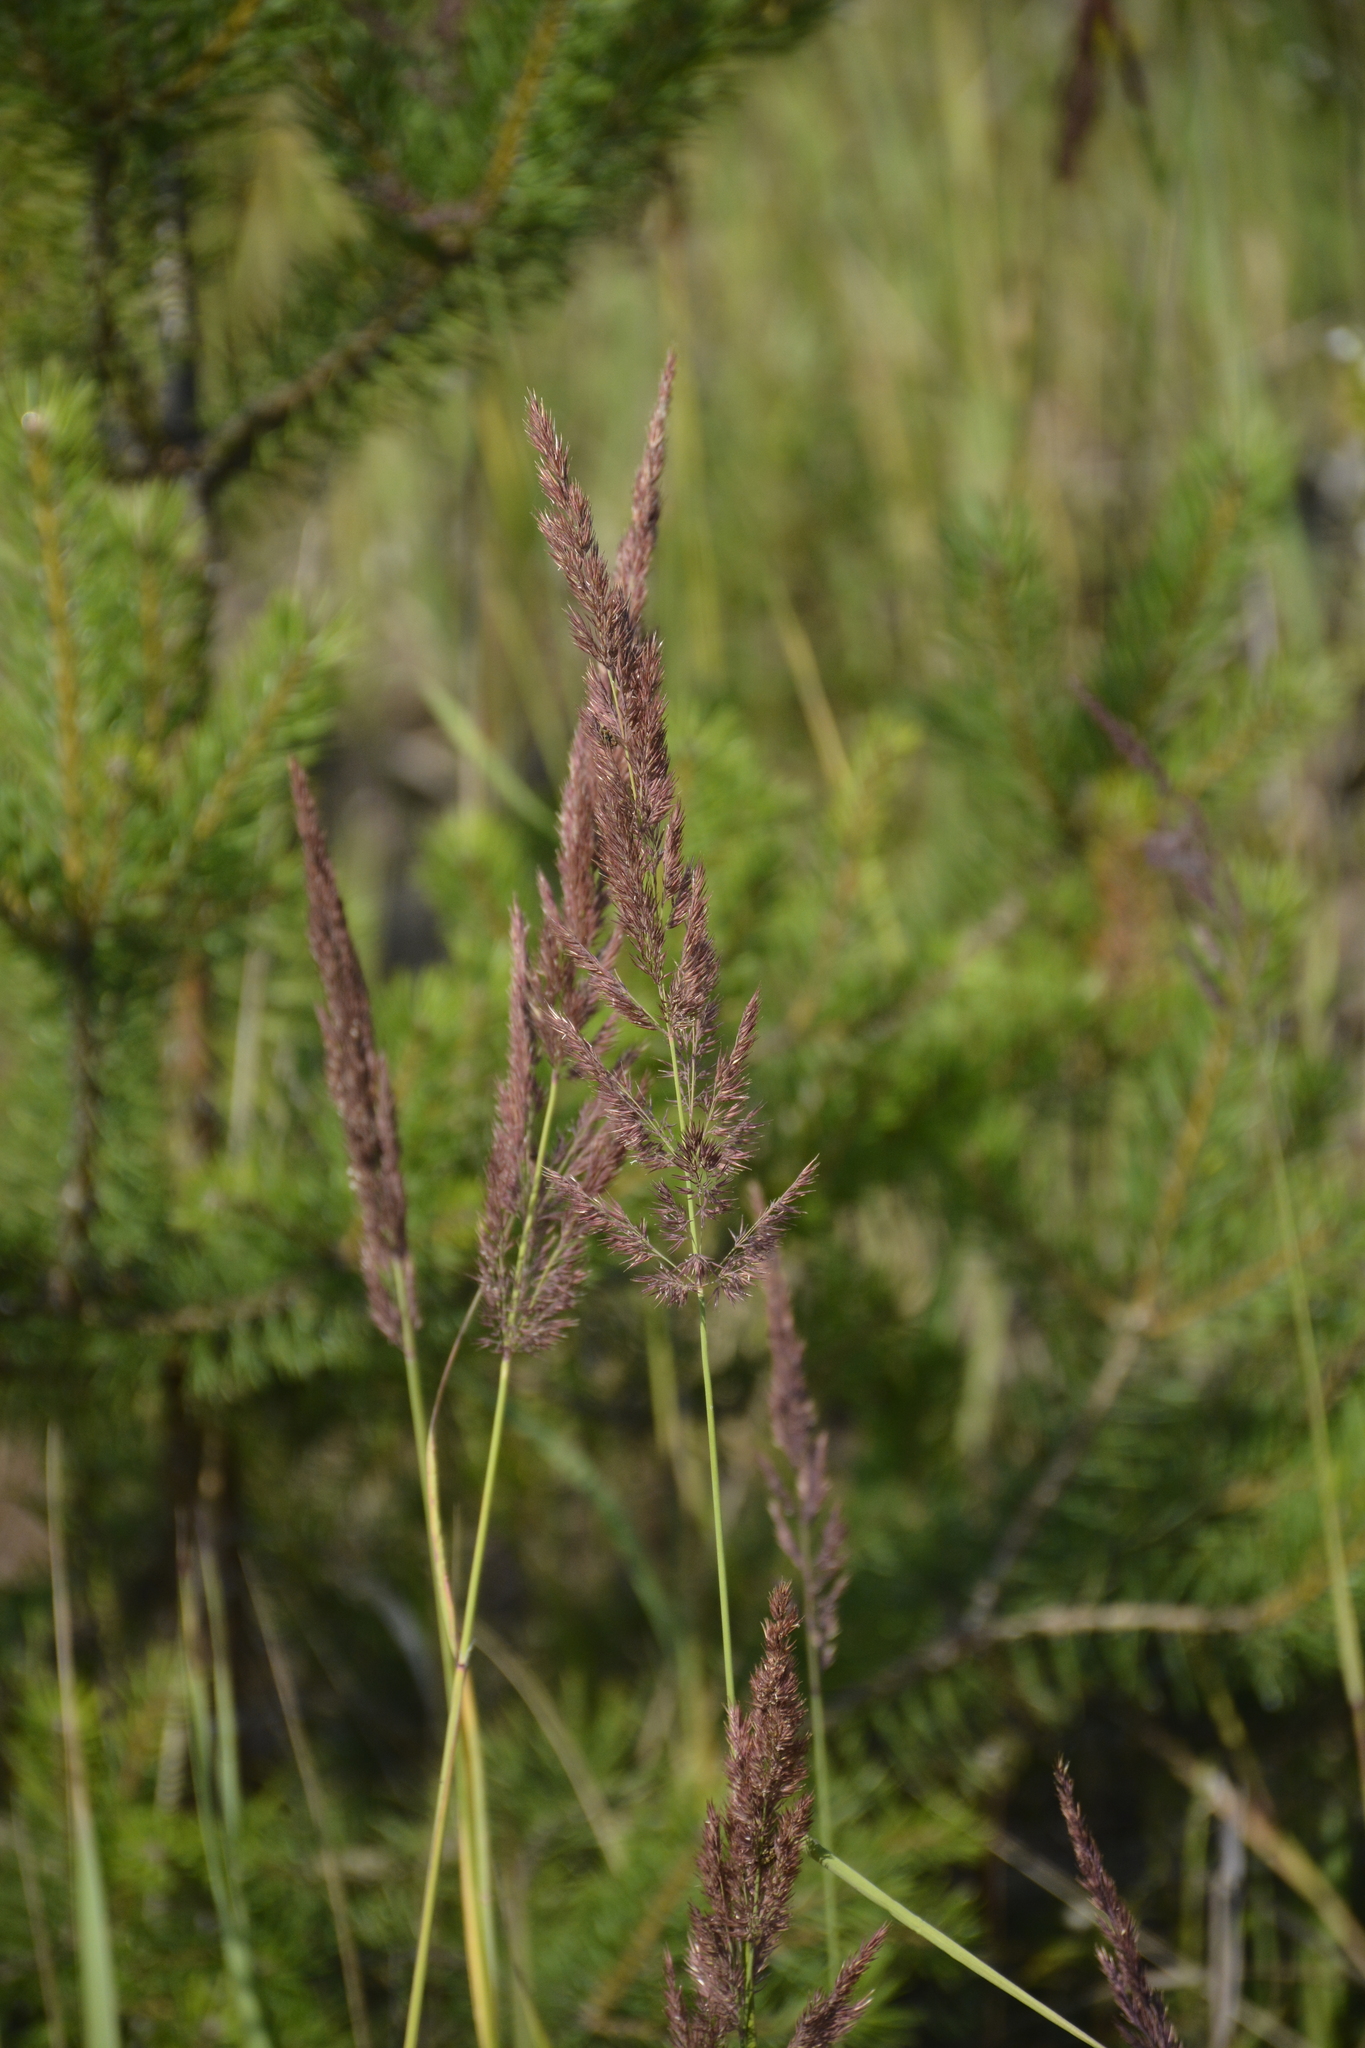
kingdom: Plantae
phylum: Tracheophyta
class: Liliopsida
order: Poales
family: Poaceae
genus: Calamagrostis
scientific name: Calamagrostis epigejos
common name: Wood small-reed
